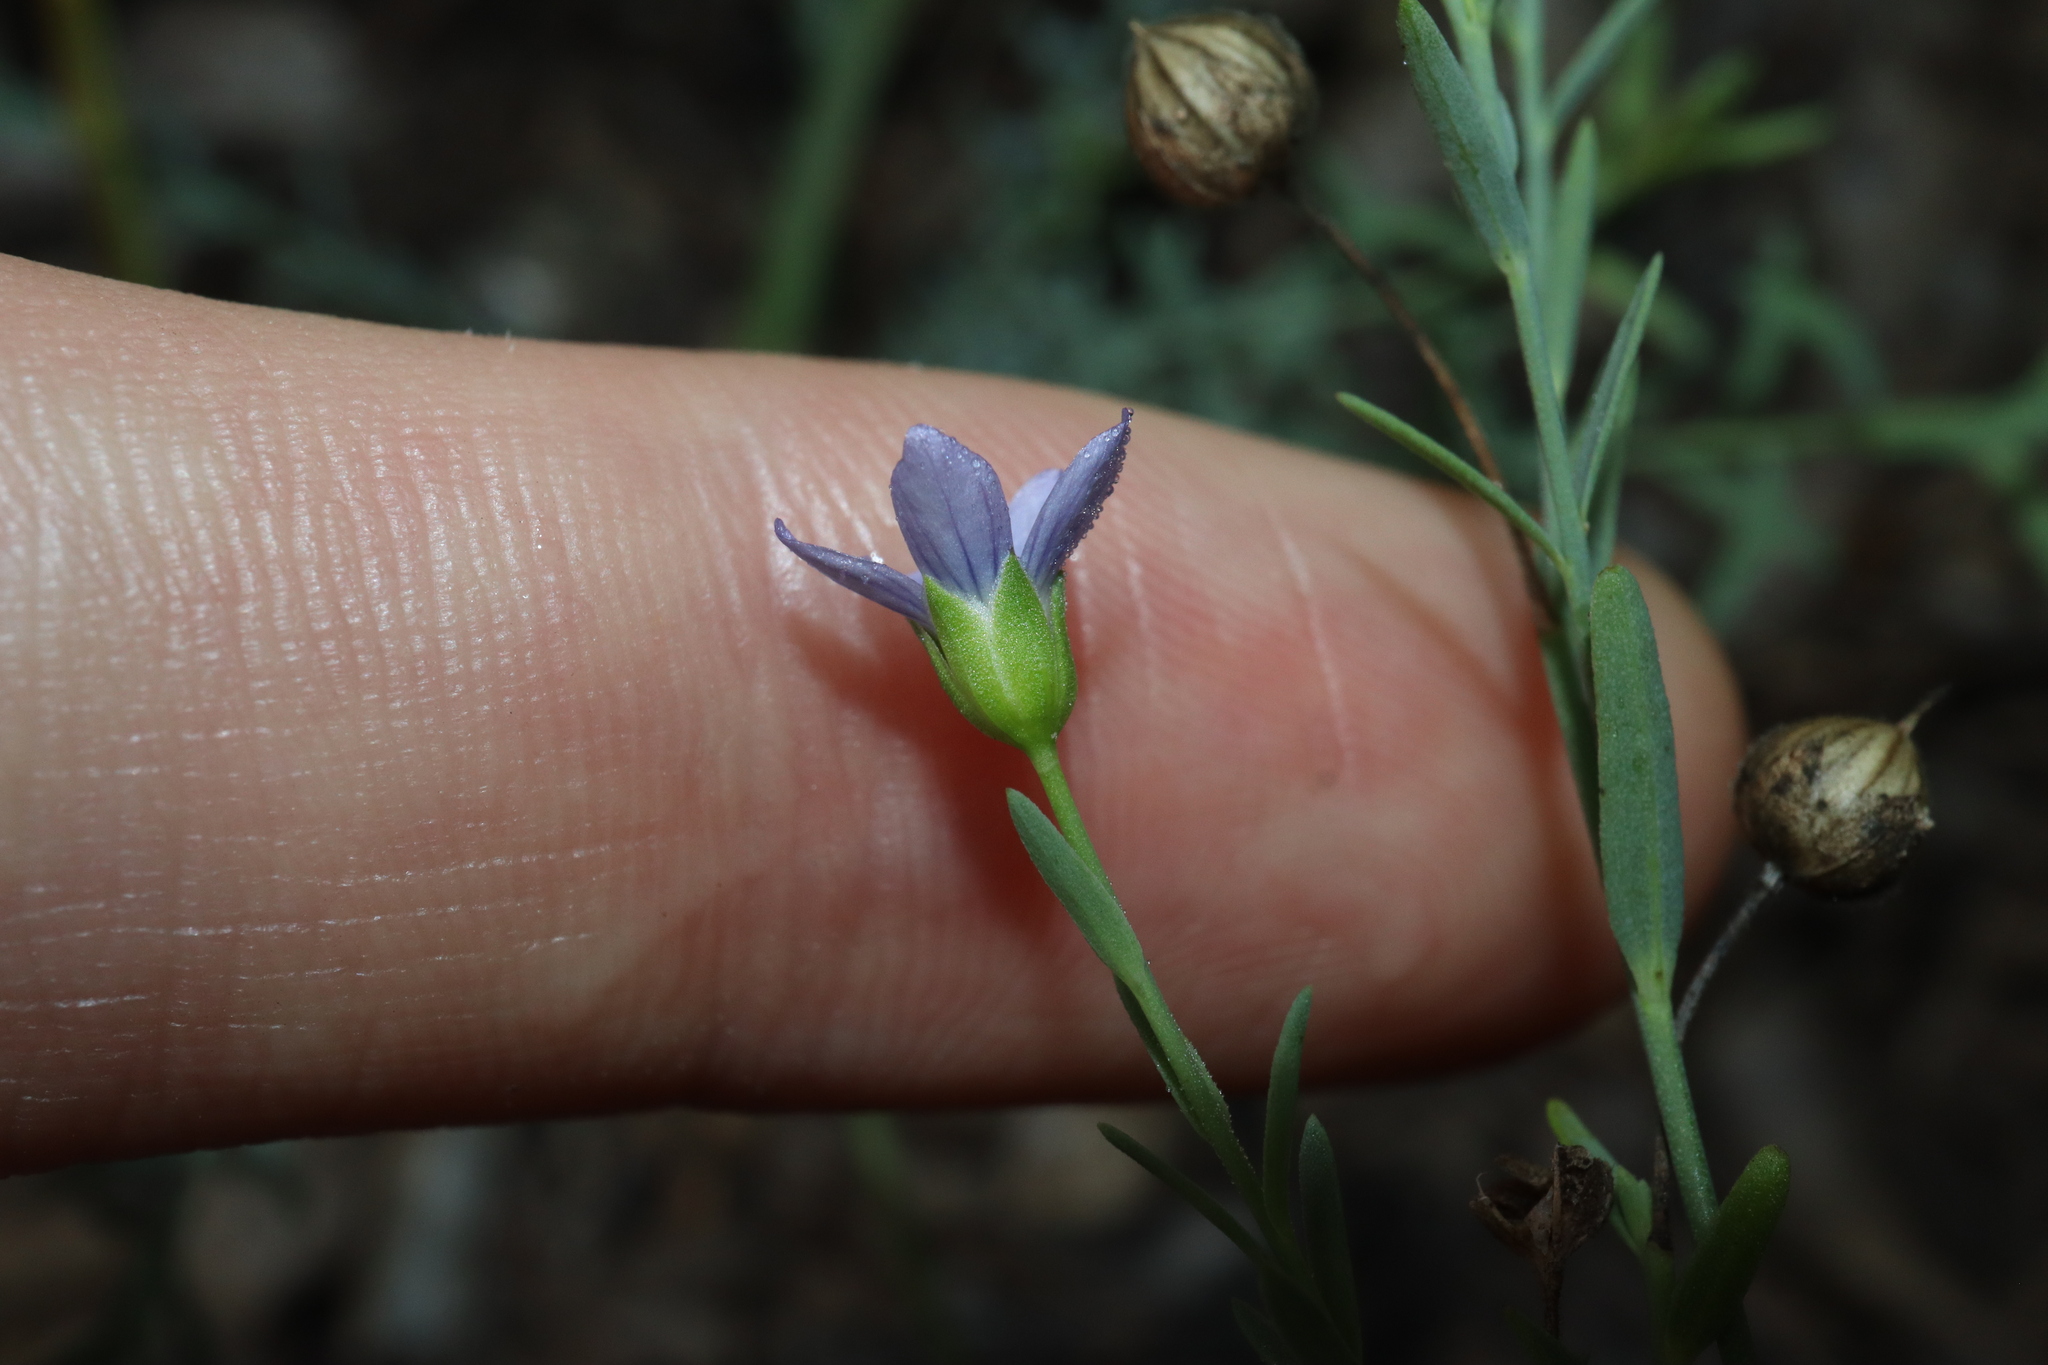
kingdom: Plantae
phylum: Tracheophyta
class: Magnoliopsida
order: Malpighiales
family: Linaceae
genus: Linum
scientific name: Linum marginale
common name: Wild flax
